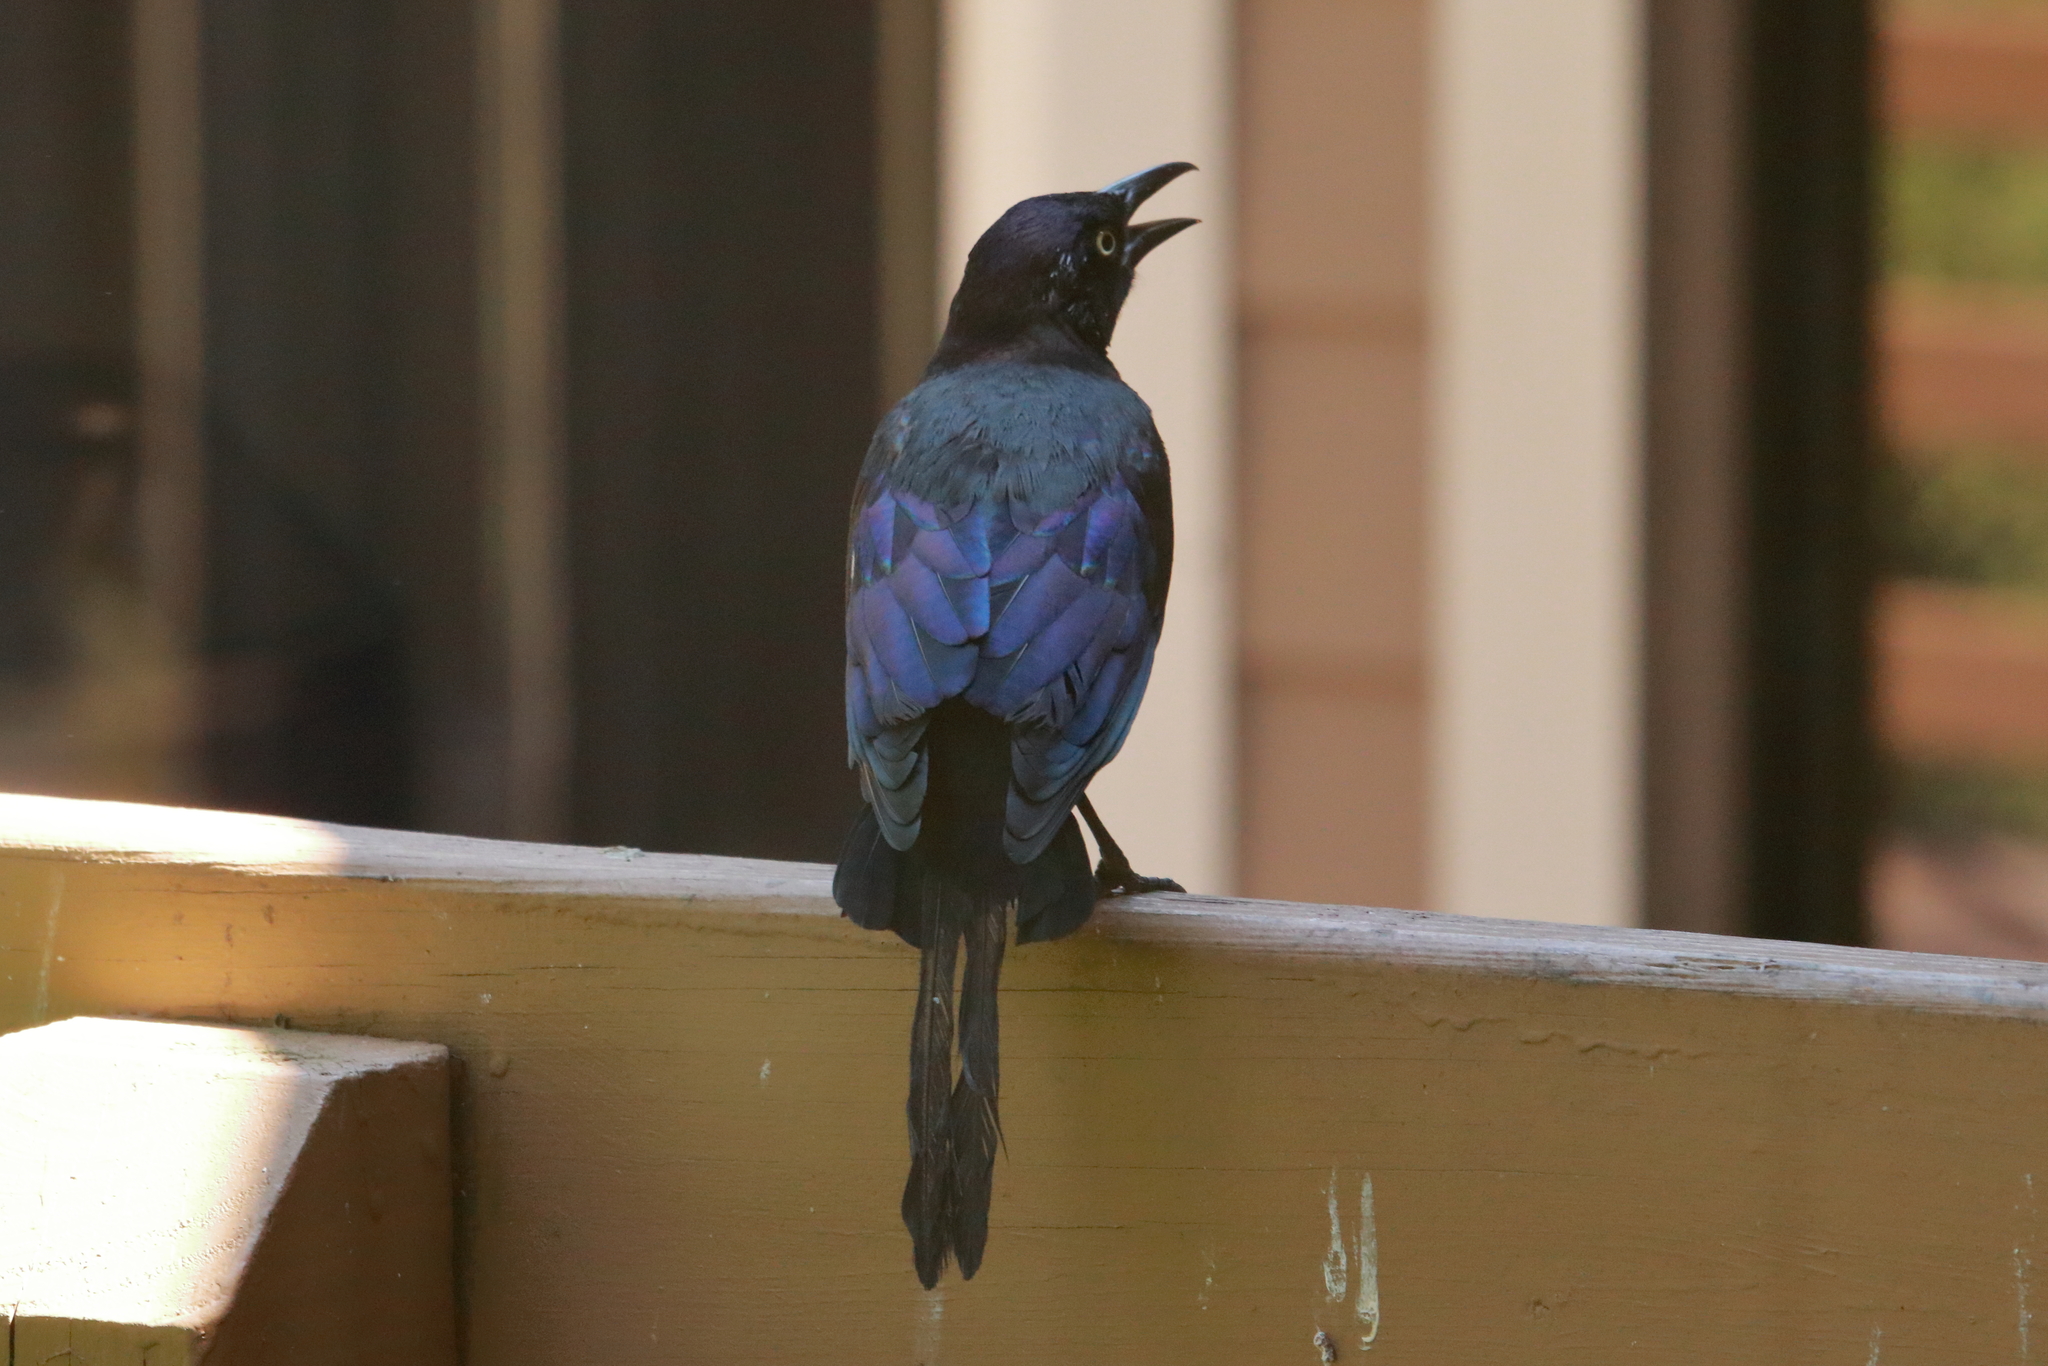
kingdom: Animalia
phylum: Chordata
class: Aves
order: Passeriformes
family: Icteridae
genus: Quiscalus
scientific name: Quiscalus quiscula
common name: Common grackle
